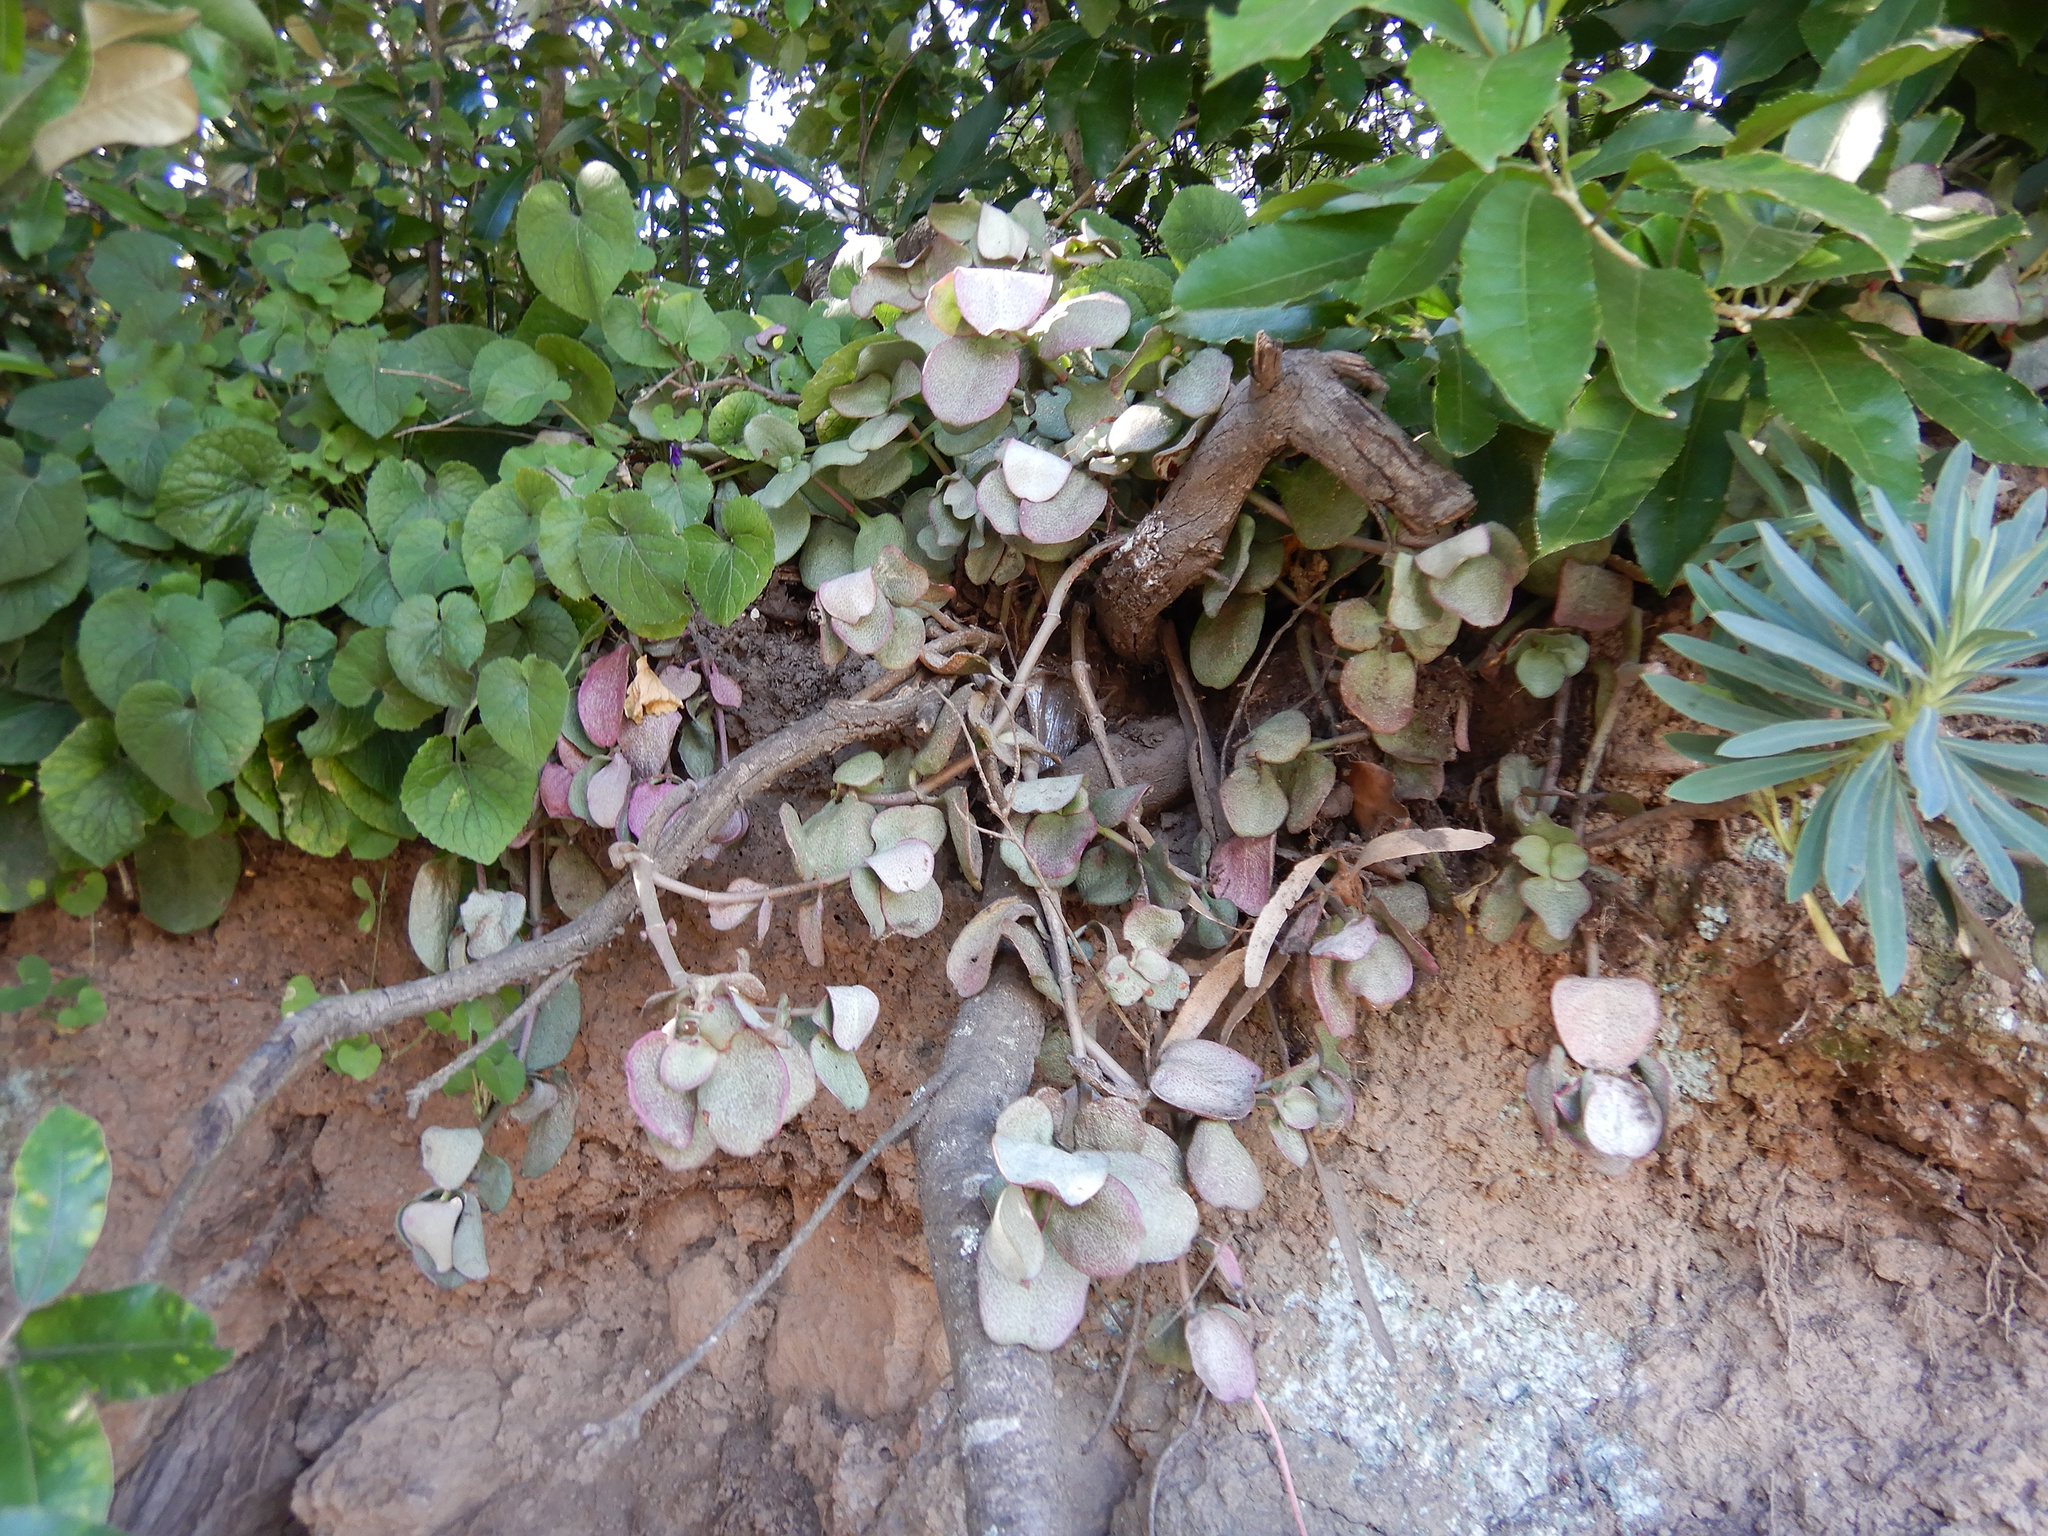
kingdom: Plantae
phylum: Tracheophyta
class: Magnoliopsida
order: Saxifragales
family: Crassulaceae
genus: Crassula
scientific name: Crassula multicava
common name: Cape province pygmyweed
